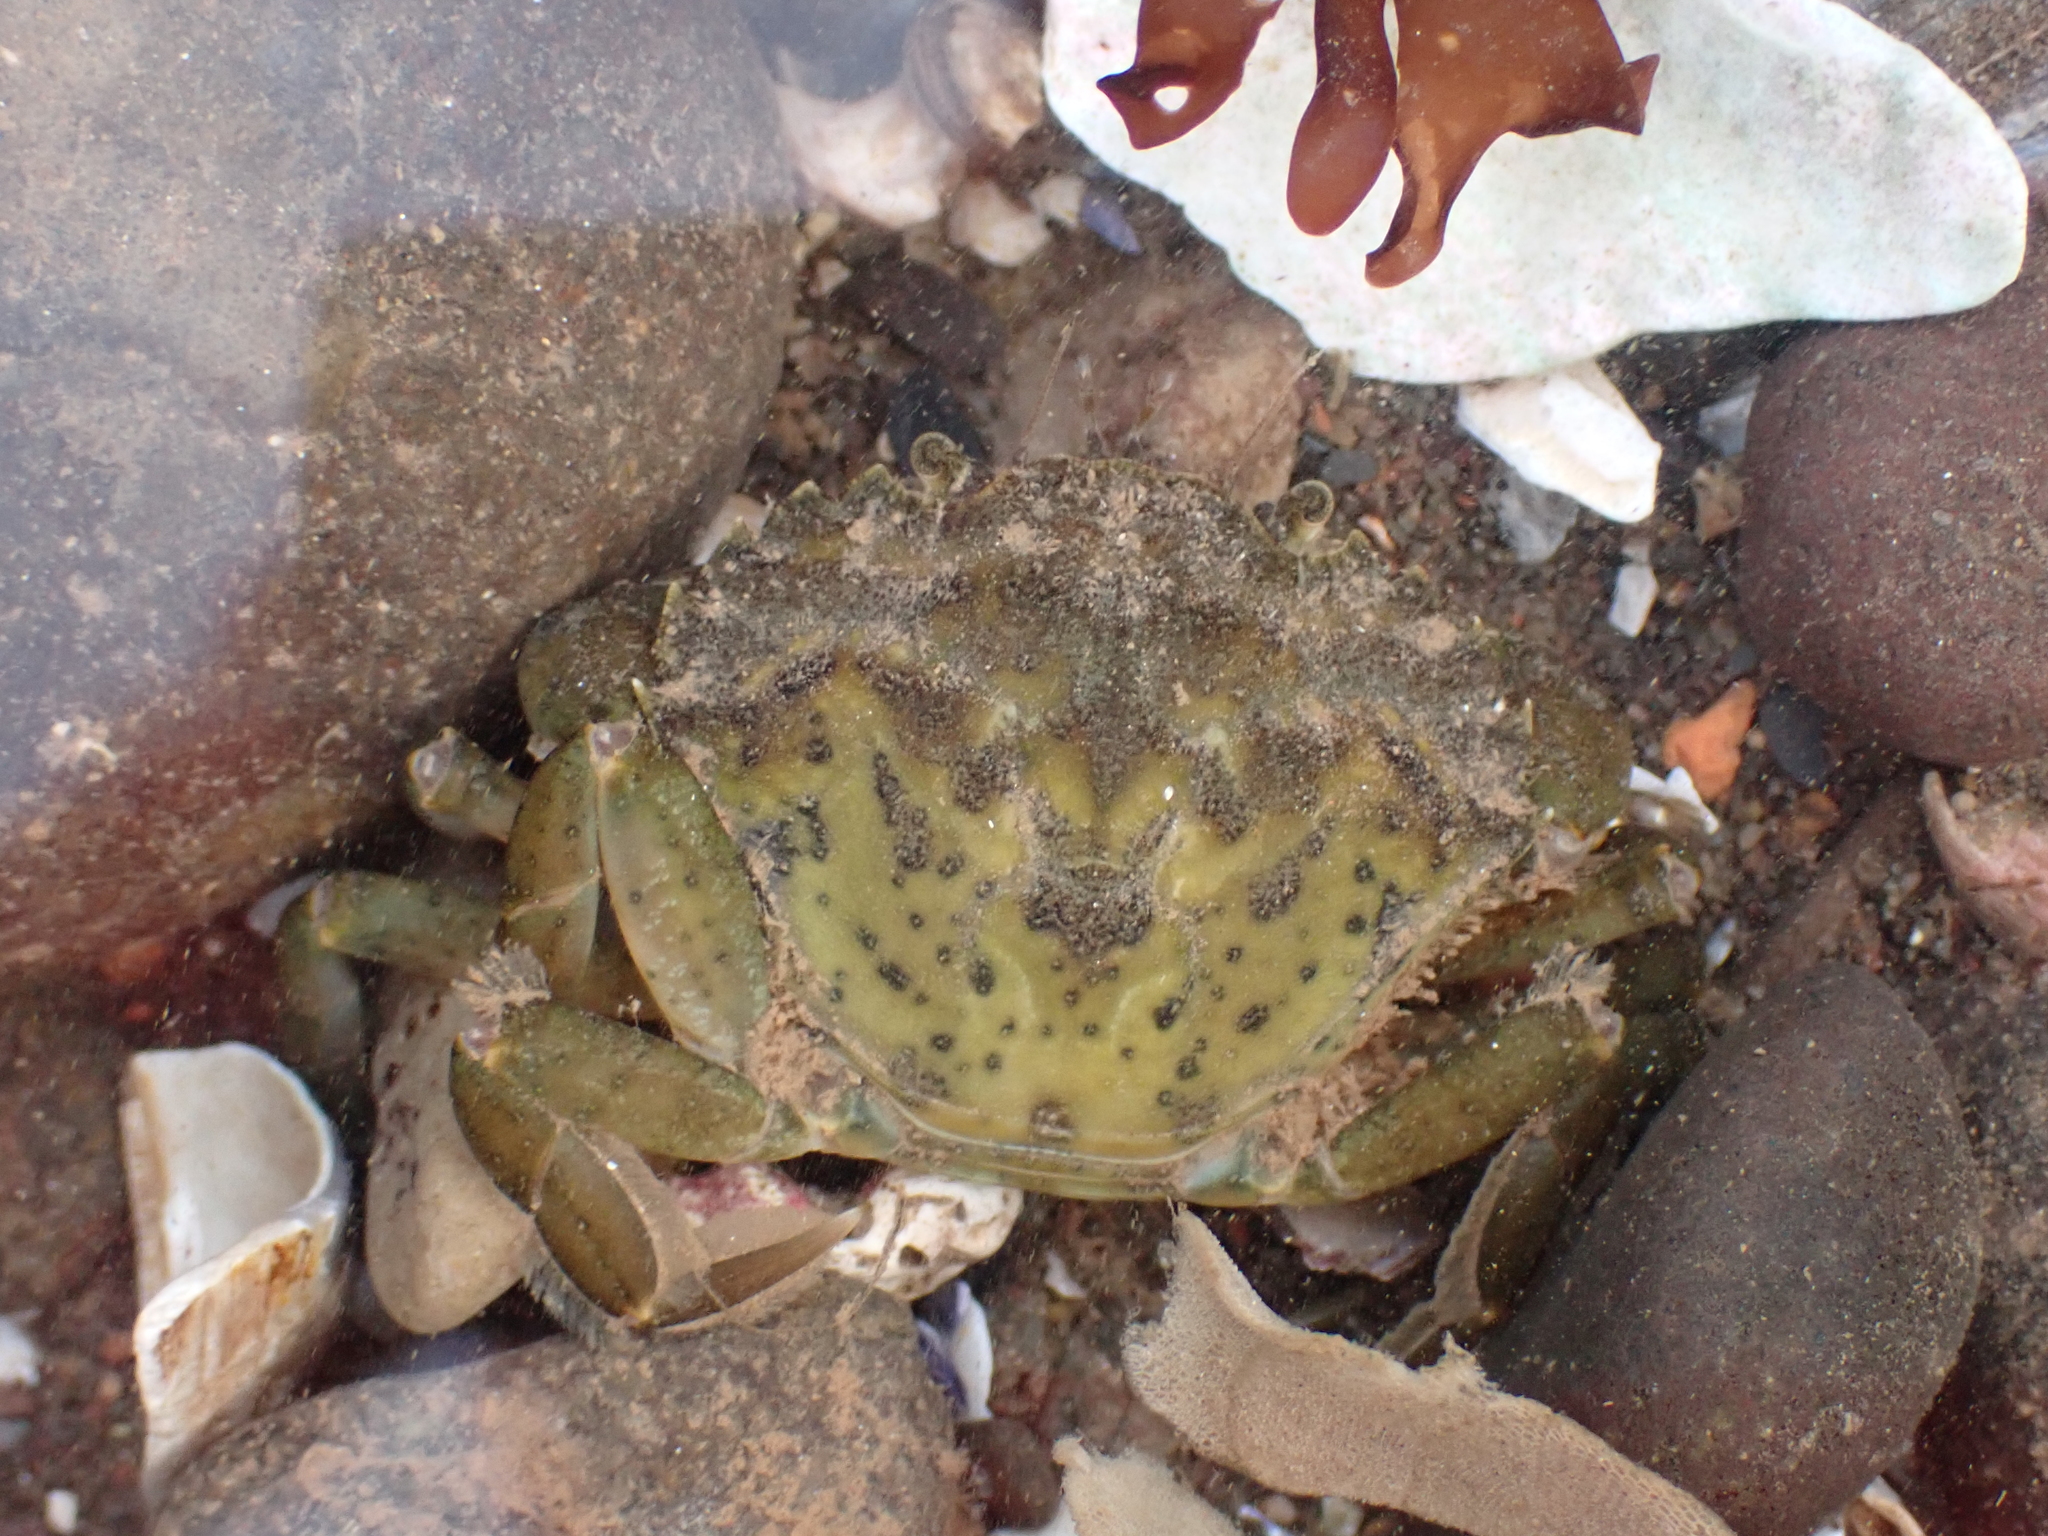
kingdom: Animalia
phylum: Arthropoda
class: Malacostraca
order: Decapoda
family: Carcinidae
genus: Carcinus
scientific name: Carcinus maenas
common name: European green crab
